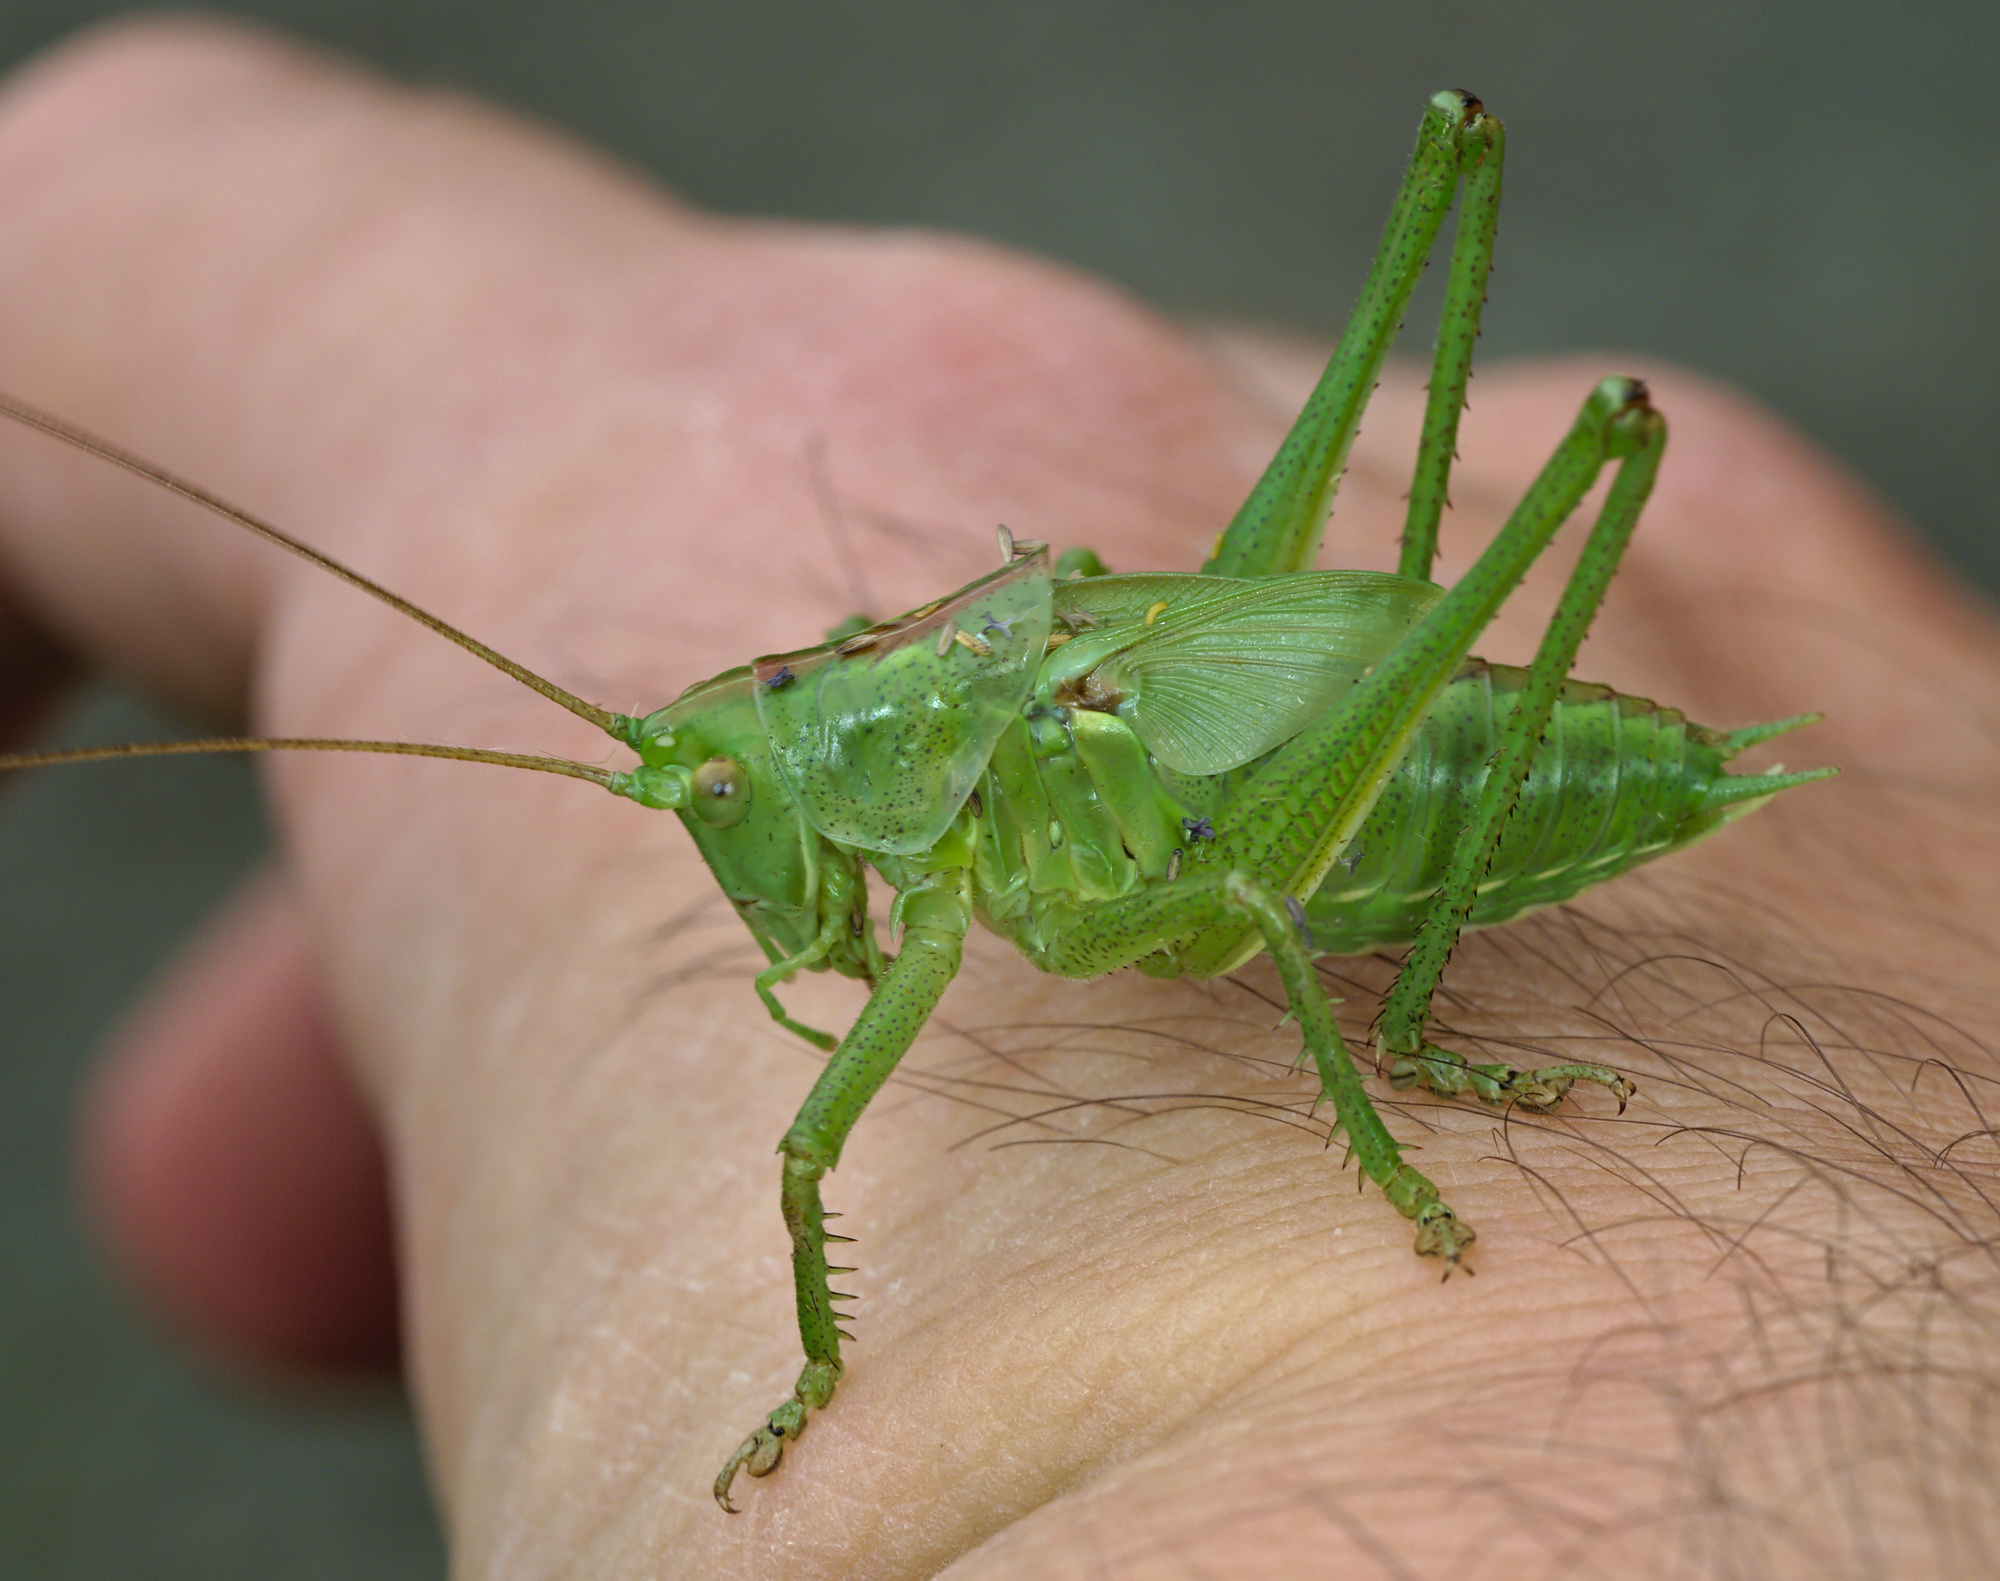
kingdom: Animalia
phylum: Arthropoda
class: Insecta
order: Orthoptera
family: Tettigoniidae
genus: Tettigonia
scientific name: Tettigonia viridissima
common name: Great green bush-cricket
